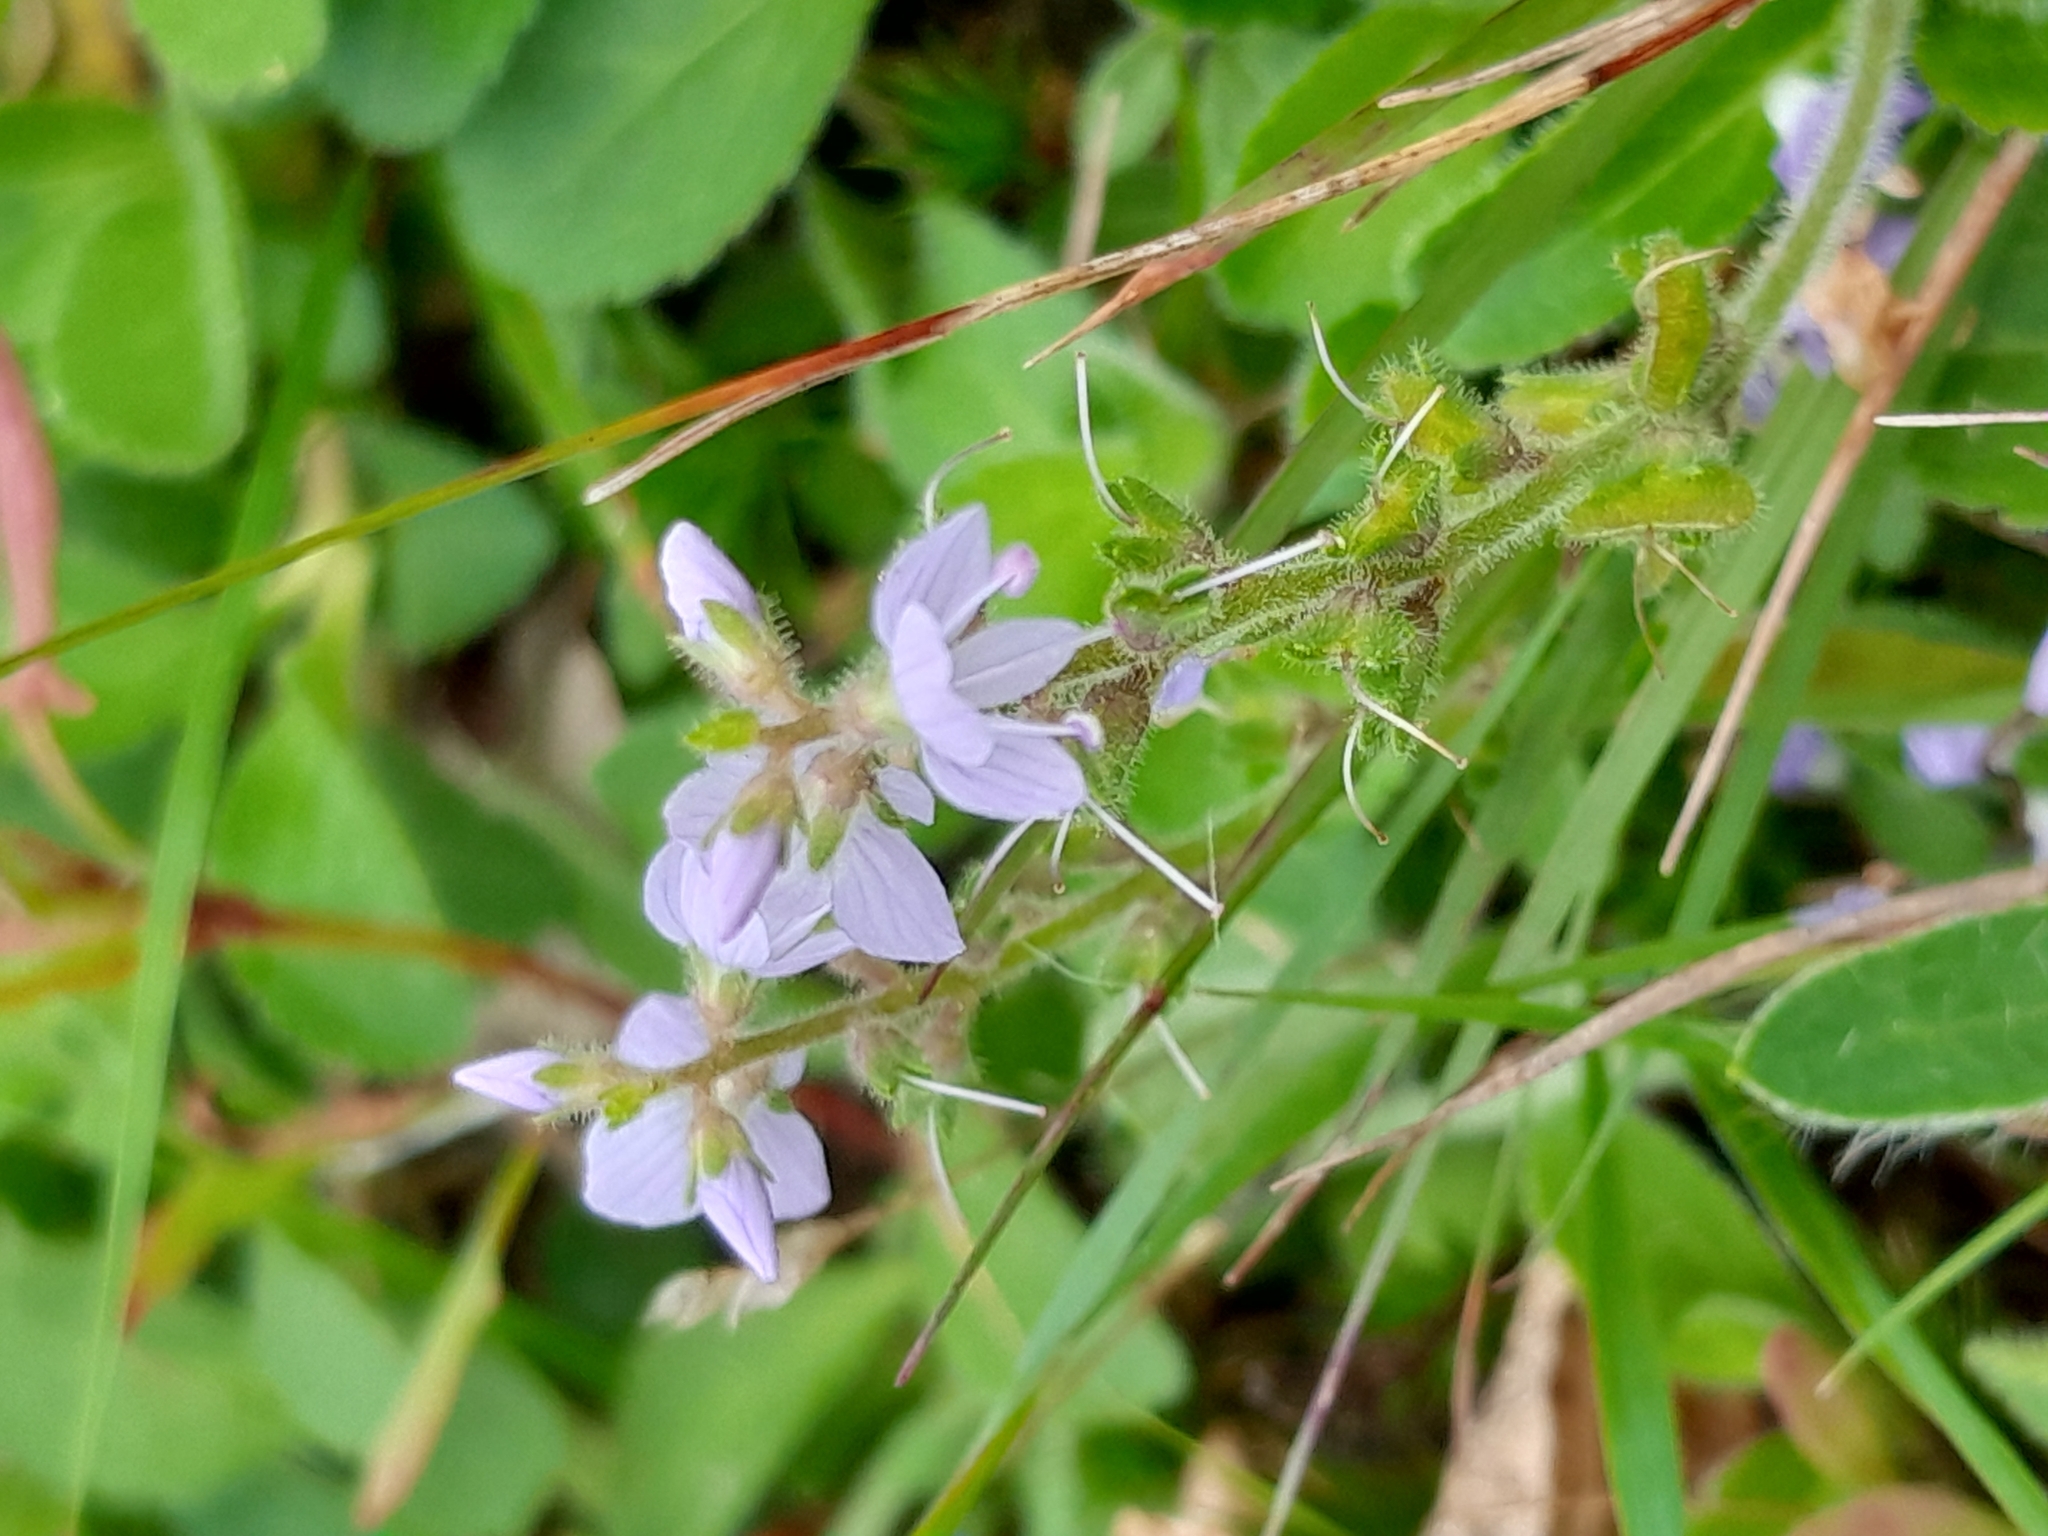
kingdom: Plantae
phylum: Tracheophyta
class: Magnoliopsida
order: Lamiales
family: Plantaginaceae
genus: Veronica
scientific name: Veronica officinalis
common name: Common speedwell
